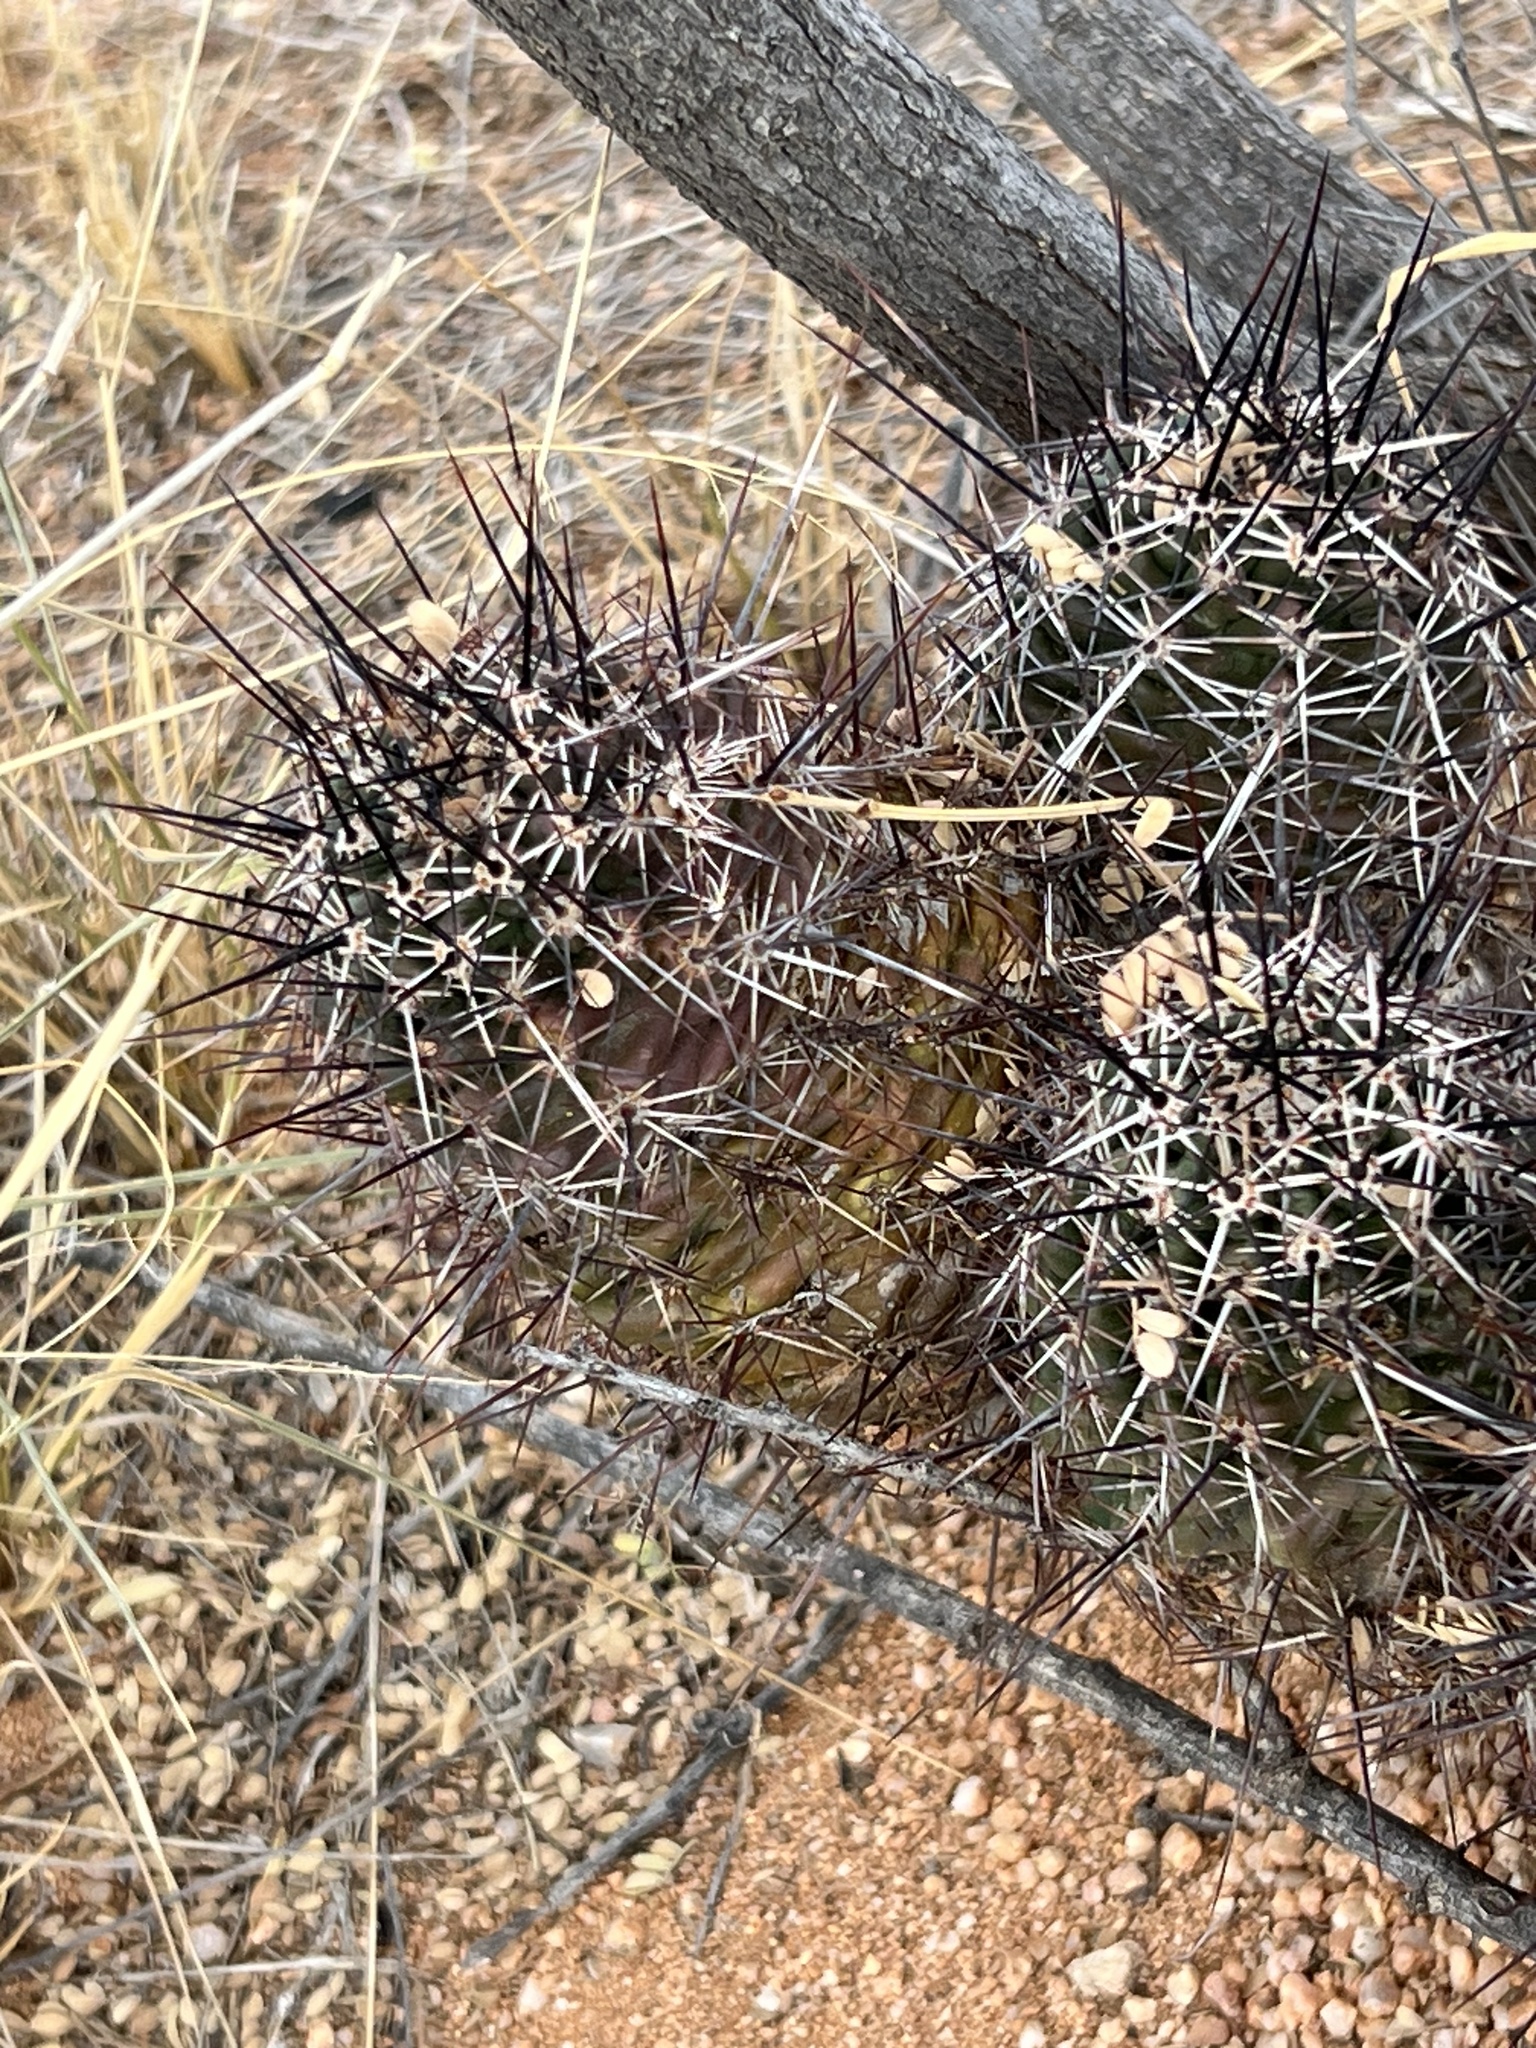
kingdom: Plantae
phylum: Tracheophyta
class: Magnoliopsida
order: Caryophyllales
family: Cactaceae
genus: Echinocereus
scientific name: Echinocereus fasciculatus
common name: Bundle hedgehog
